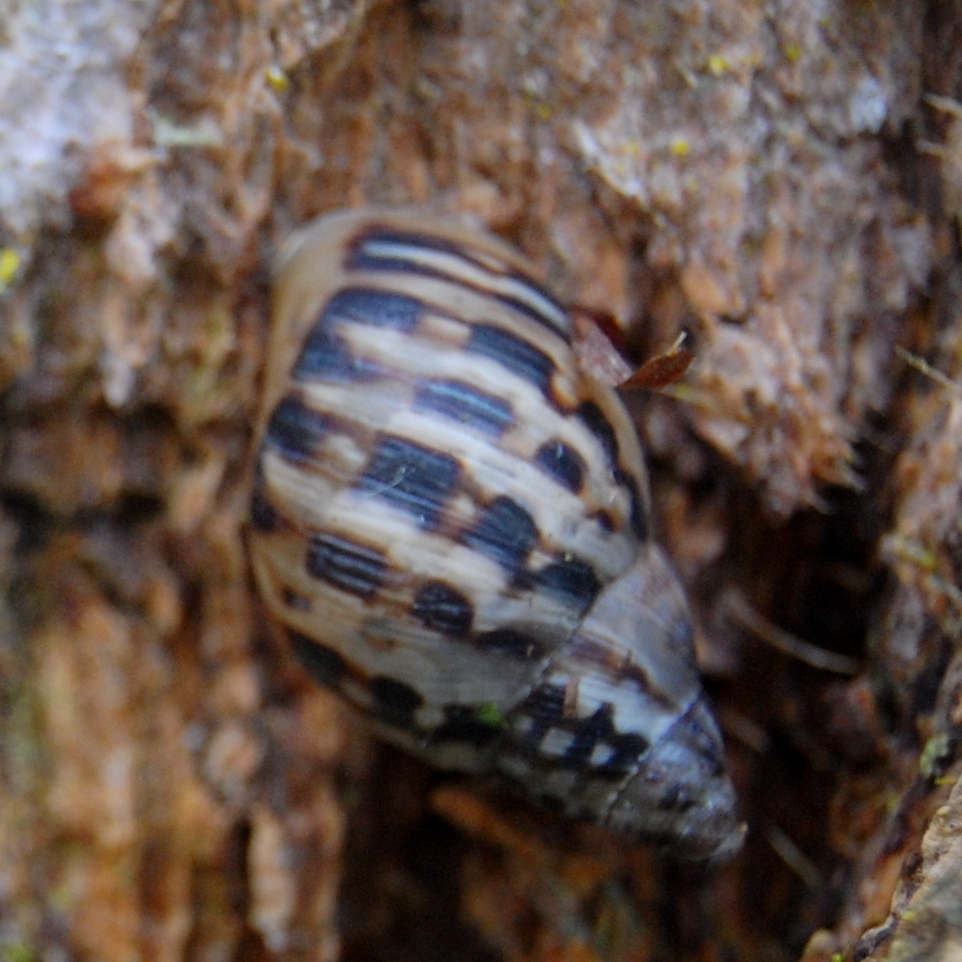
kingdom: Animalia
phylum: Mollusca
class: Gastropoda
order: Stylommatophora
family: Bulimulidae
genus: Drymaeus
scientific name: Drymaeus papyrifactus
